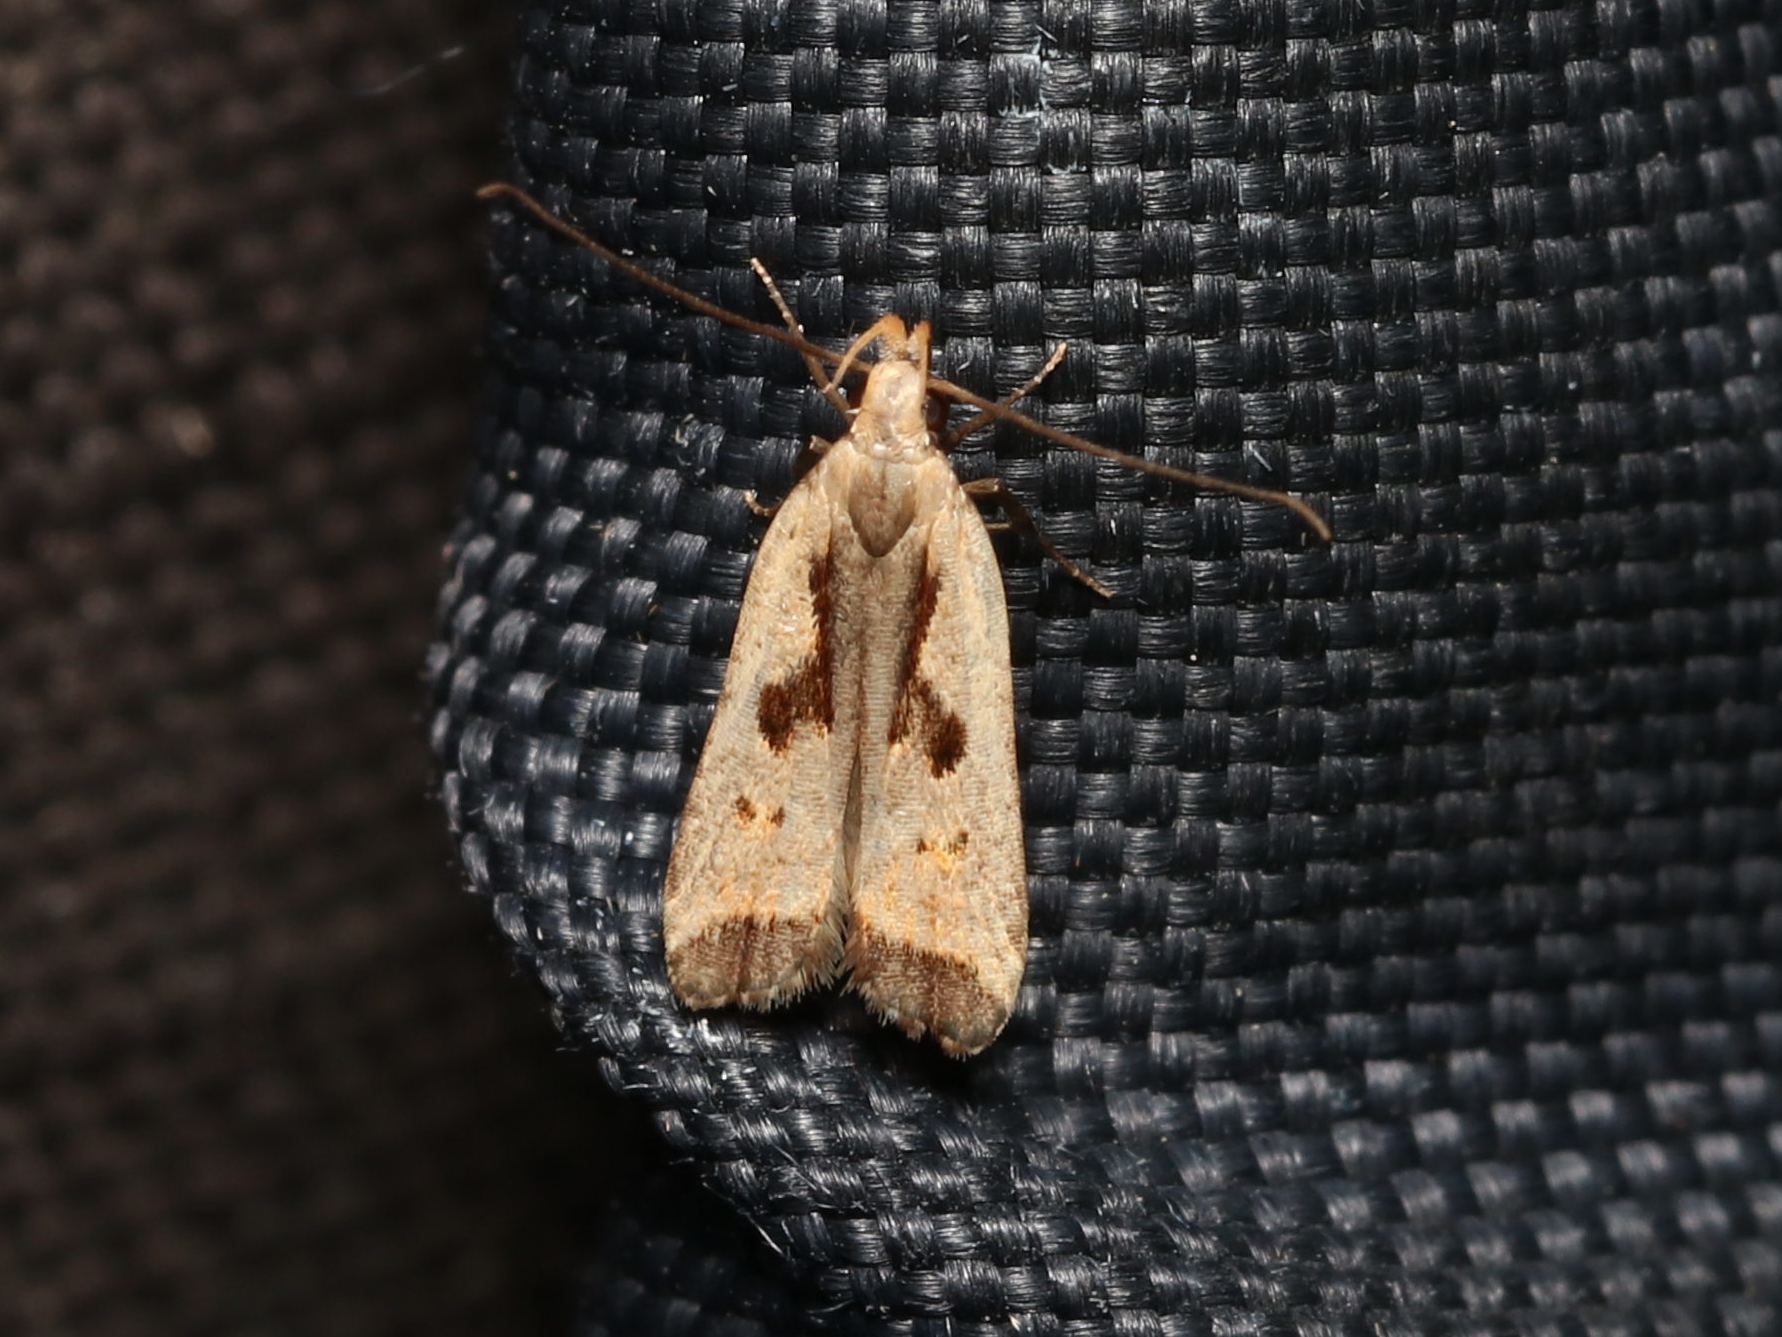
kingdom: Animalia
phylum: Arthropoda
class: Insecta
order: Lepidoptera
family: Gelechiidae
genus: Dichomeris
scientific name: Dichomeris furia
